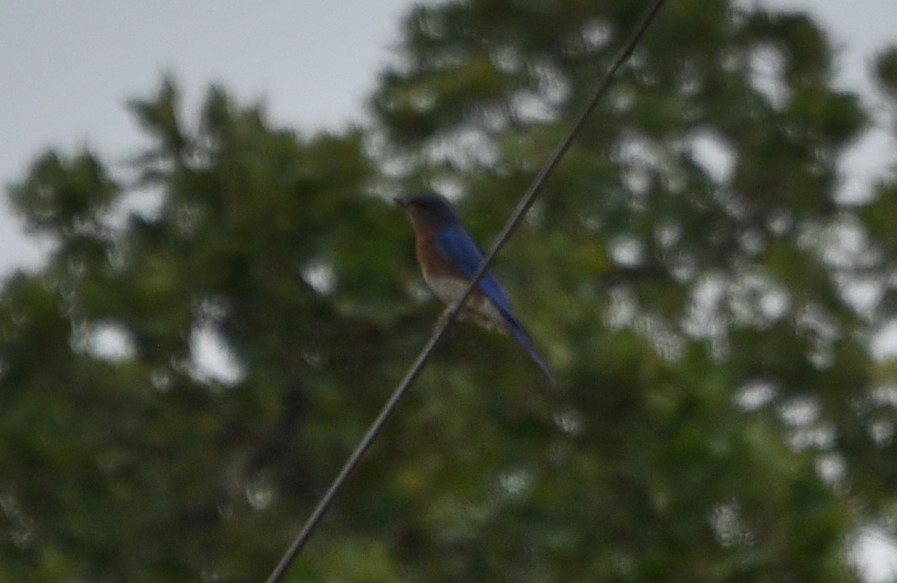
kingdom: Animalia
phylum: Chordata
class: Aves
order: Passeriformes
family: Turdidae
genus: Sialia
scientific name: Sialia sialis
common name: Eastern bluebird
